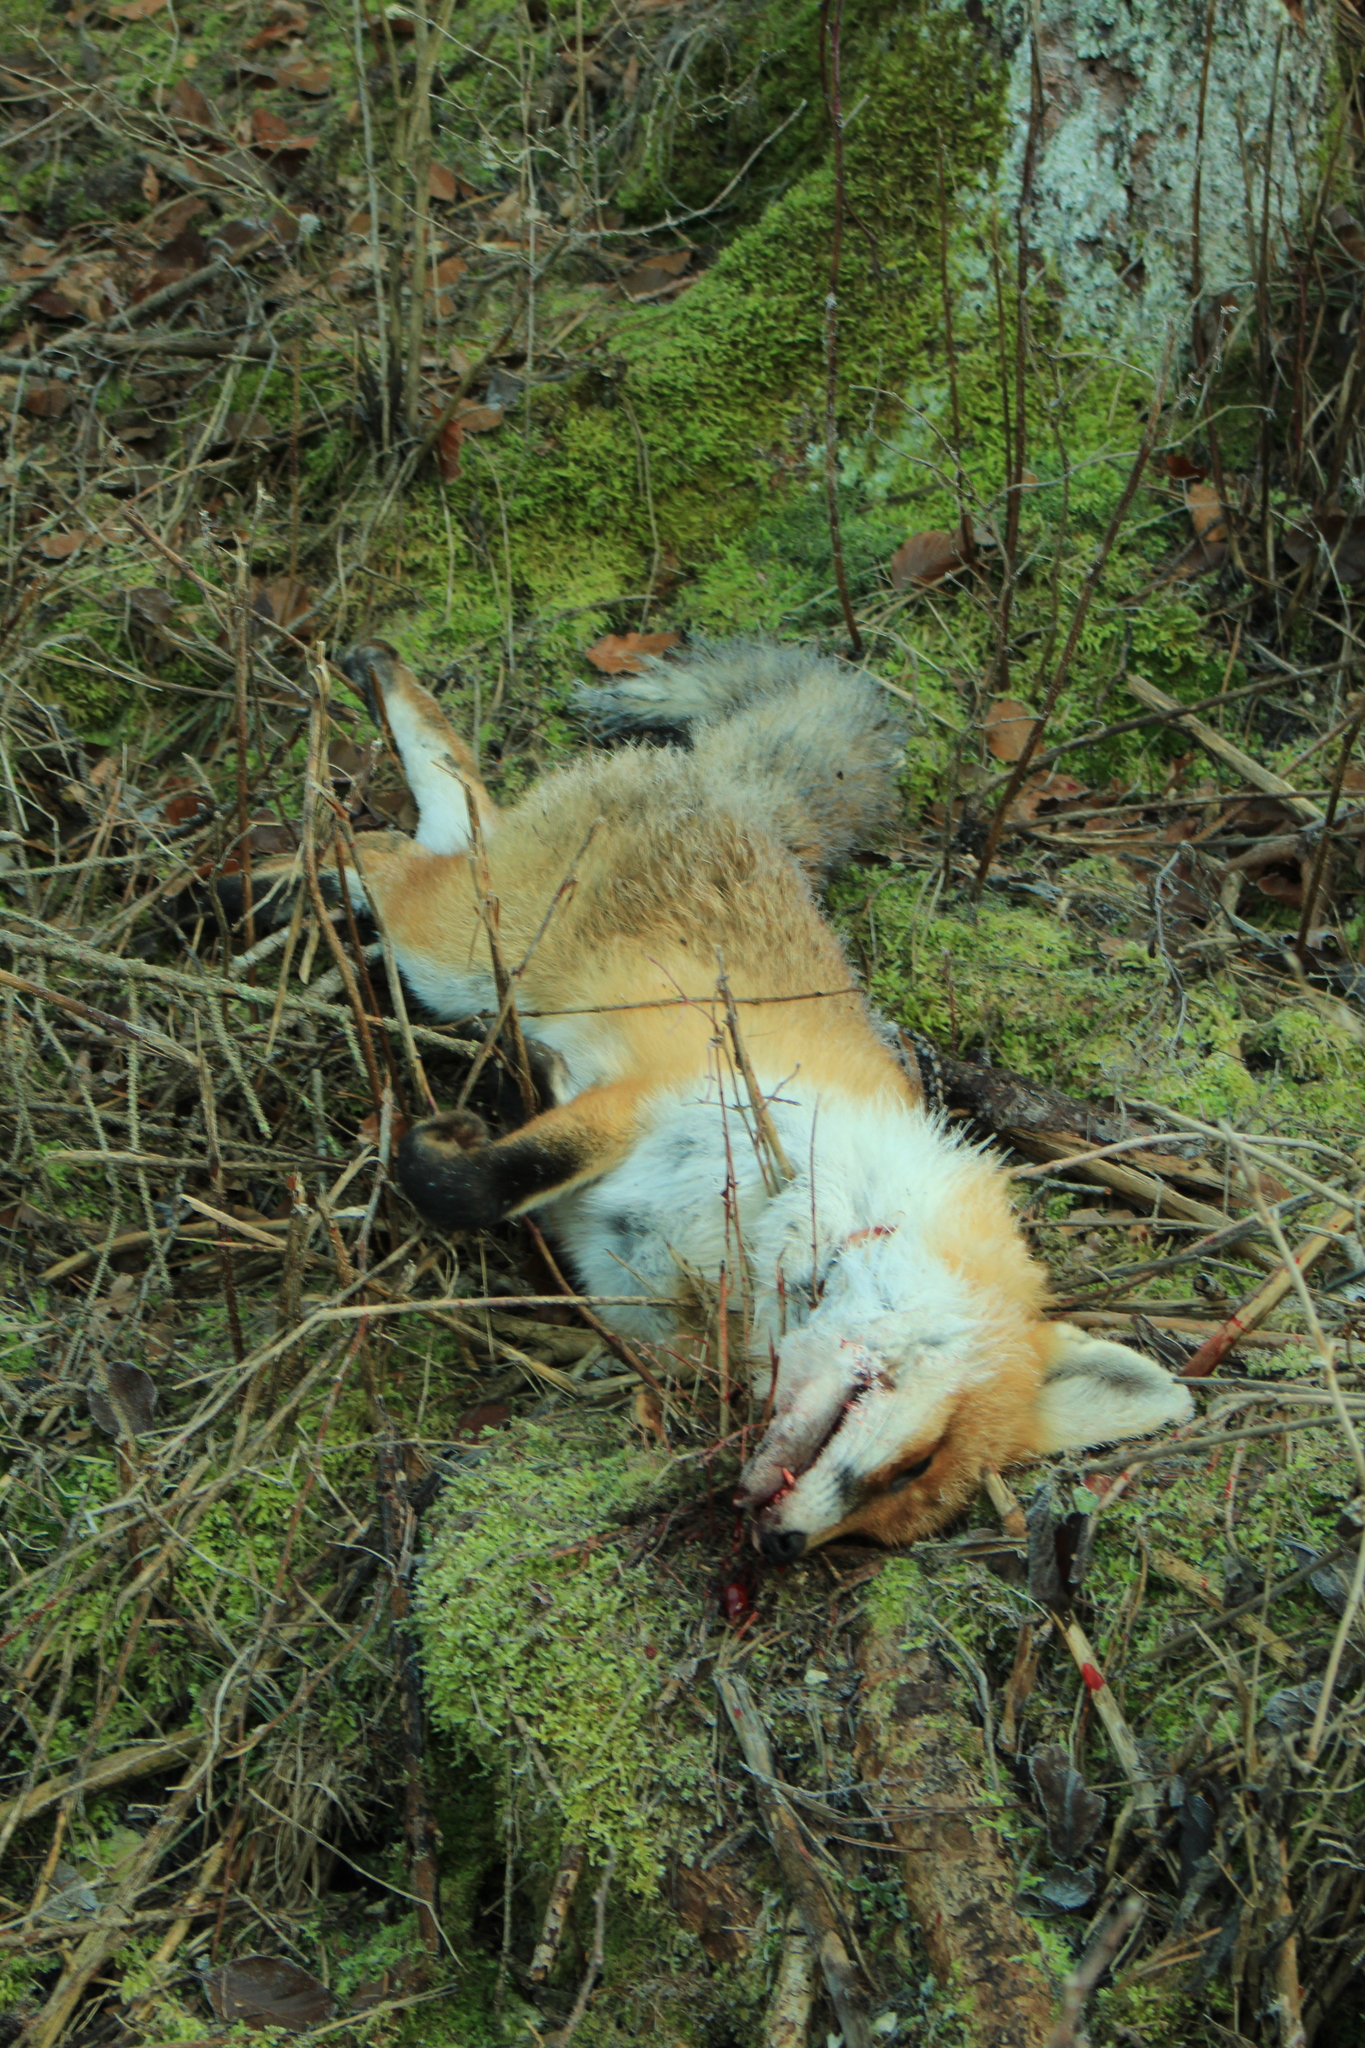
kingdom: Animalia
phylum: Chordata
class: Mammalia
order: Carnivora
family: Canidae
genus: Vulpes
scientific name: Vulpes vulpes
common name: Red fox
